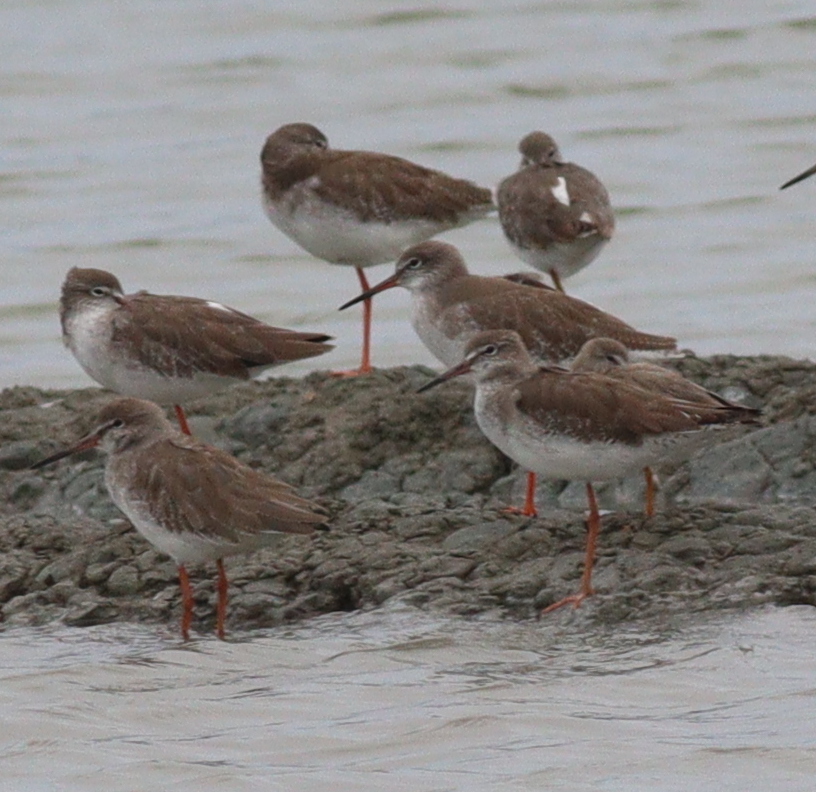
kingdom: Animalia
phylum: Chordata
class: Aves
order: Charadriiformes
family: Scolopacidae
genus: Tringa
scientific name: Tringa totanus
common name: Common redshank
